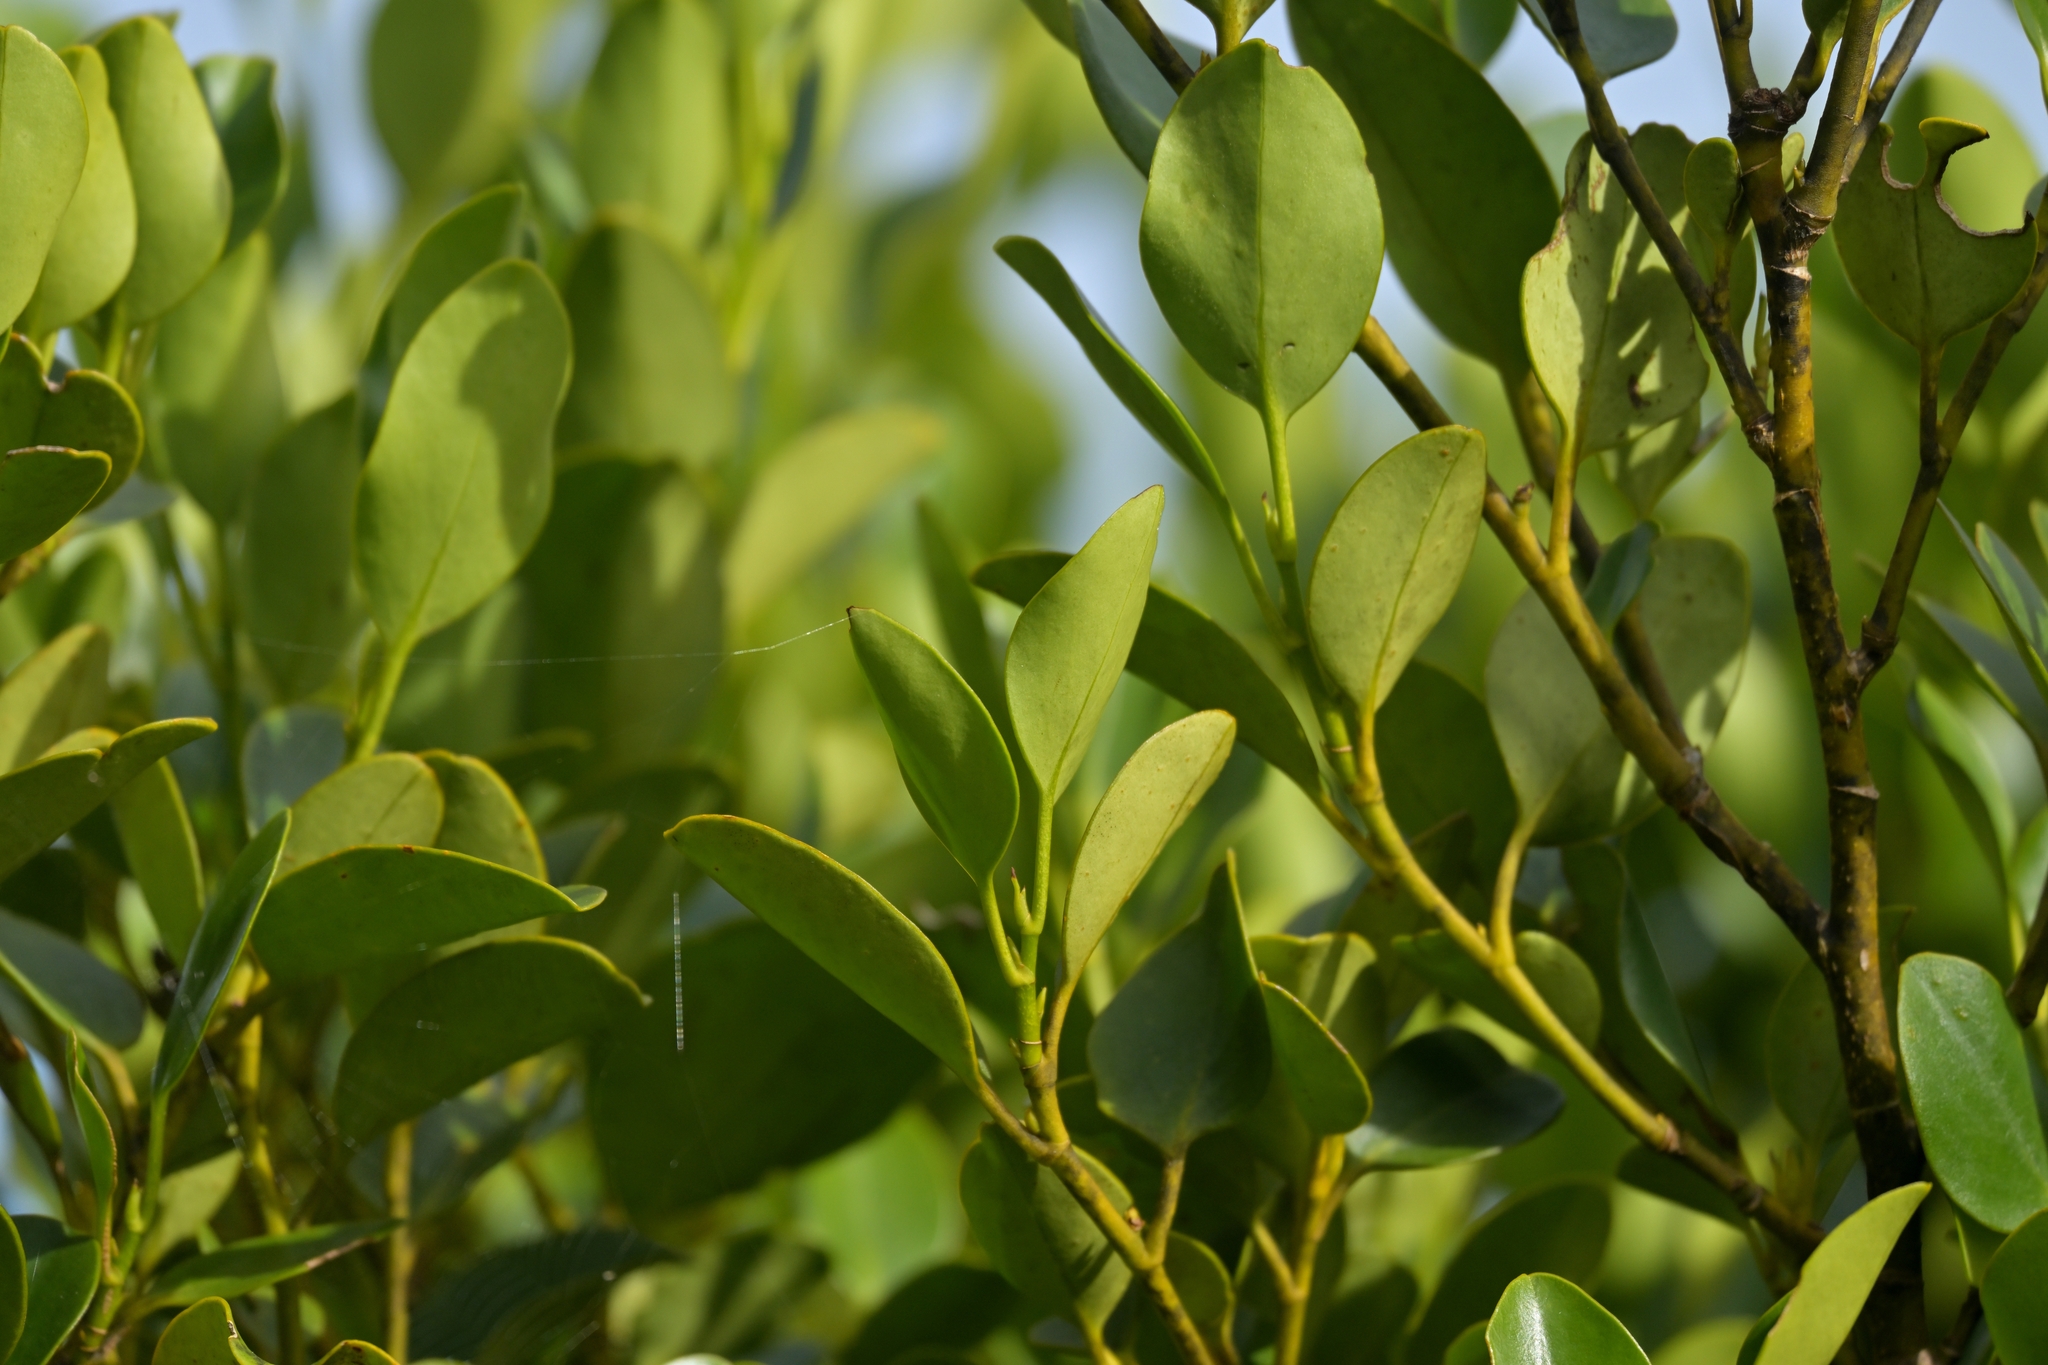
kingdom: Plantae
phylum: Tracheophyta
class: Magnoliopsida
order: Apiales
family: Griseliniaceae
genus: Griselinia
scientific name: Griselinia littoralis
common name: New zealand broadleaf
